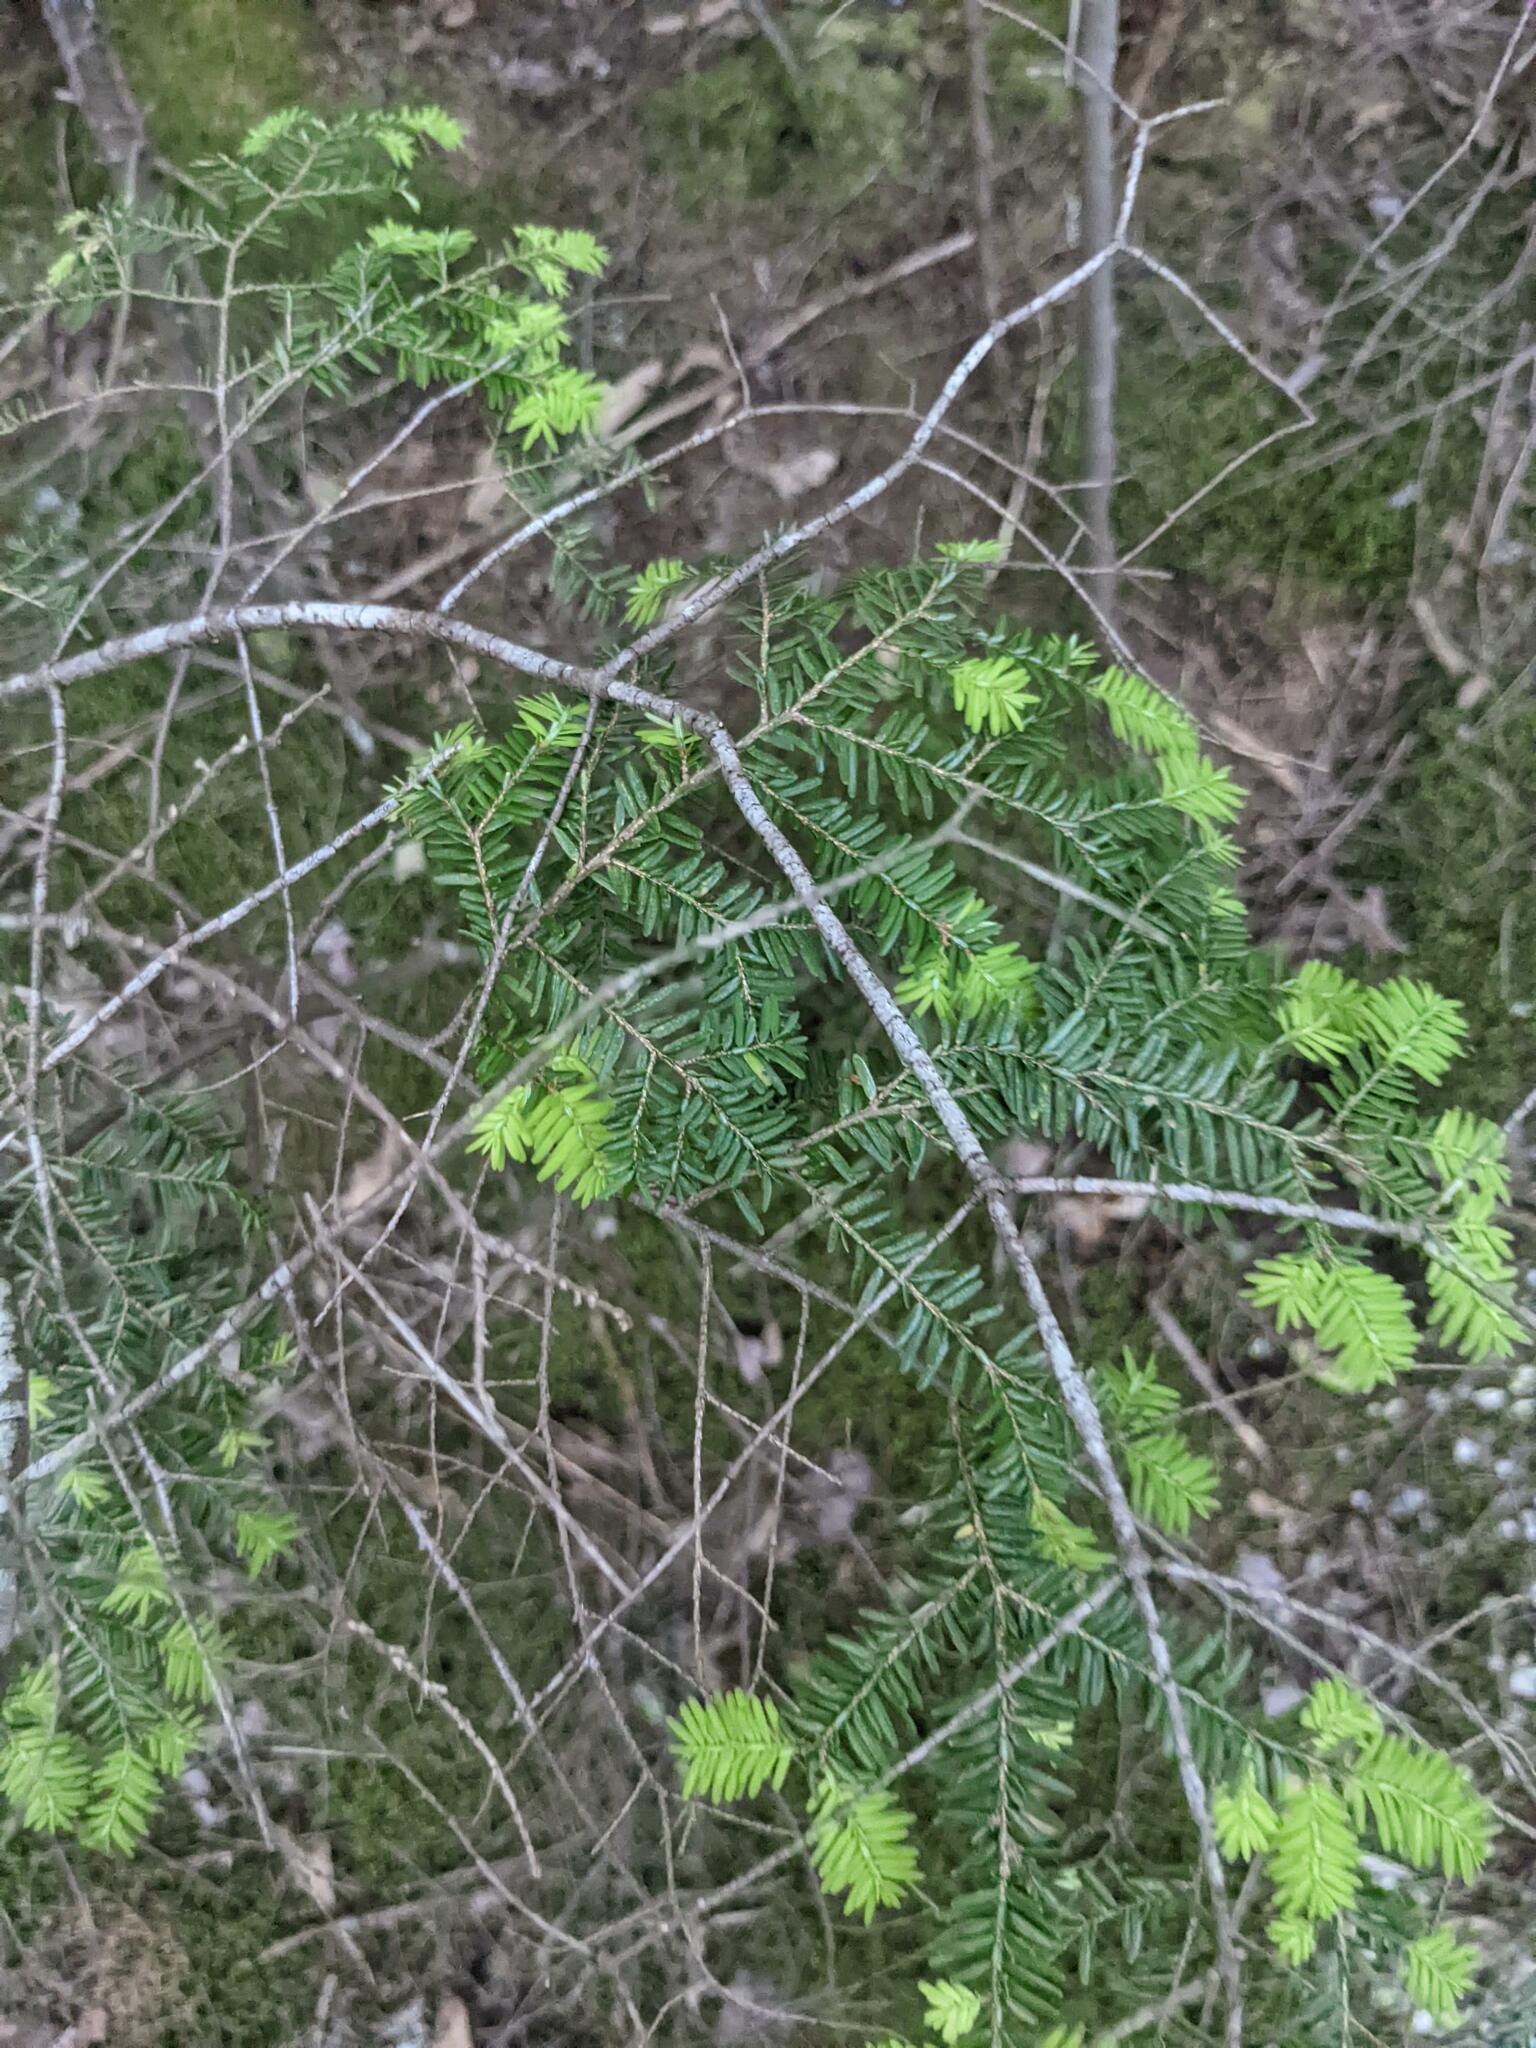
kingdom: Plantae
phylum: Tracheophyta
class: Pinopsida
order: Pinales
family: Pinaceae
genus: Tsuga
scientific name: Tsuga canadensis
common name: Eastern hemlock
